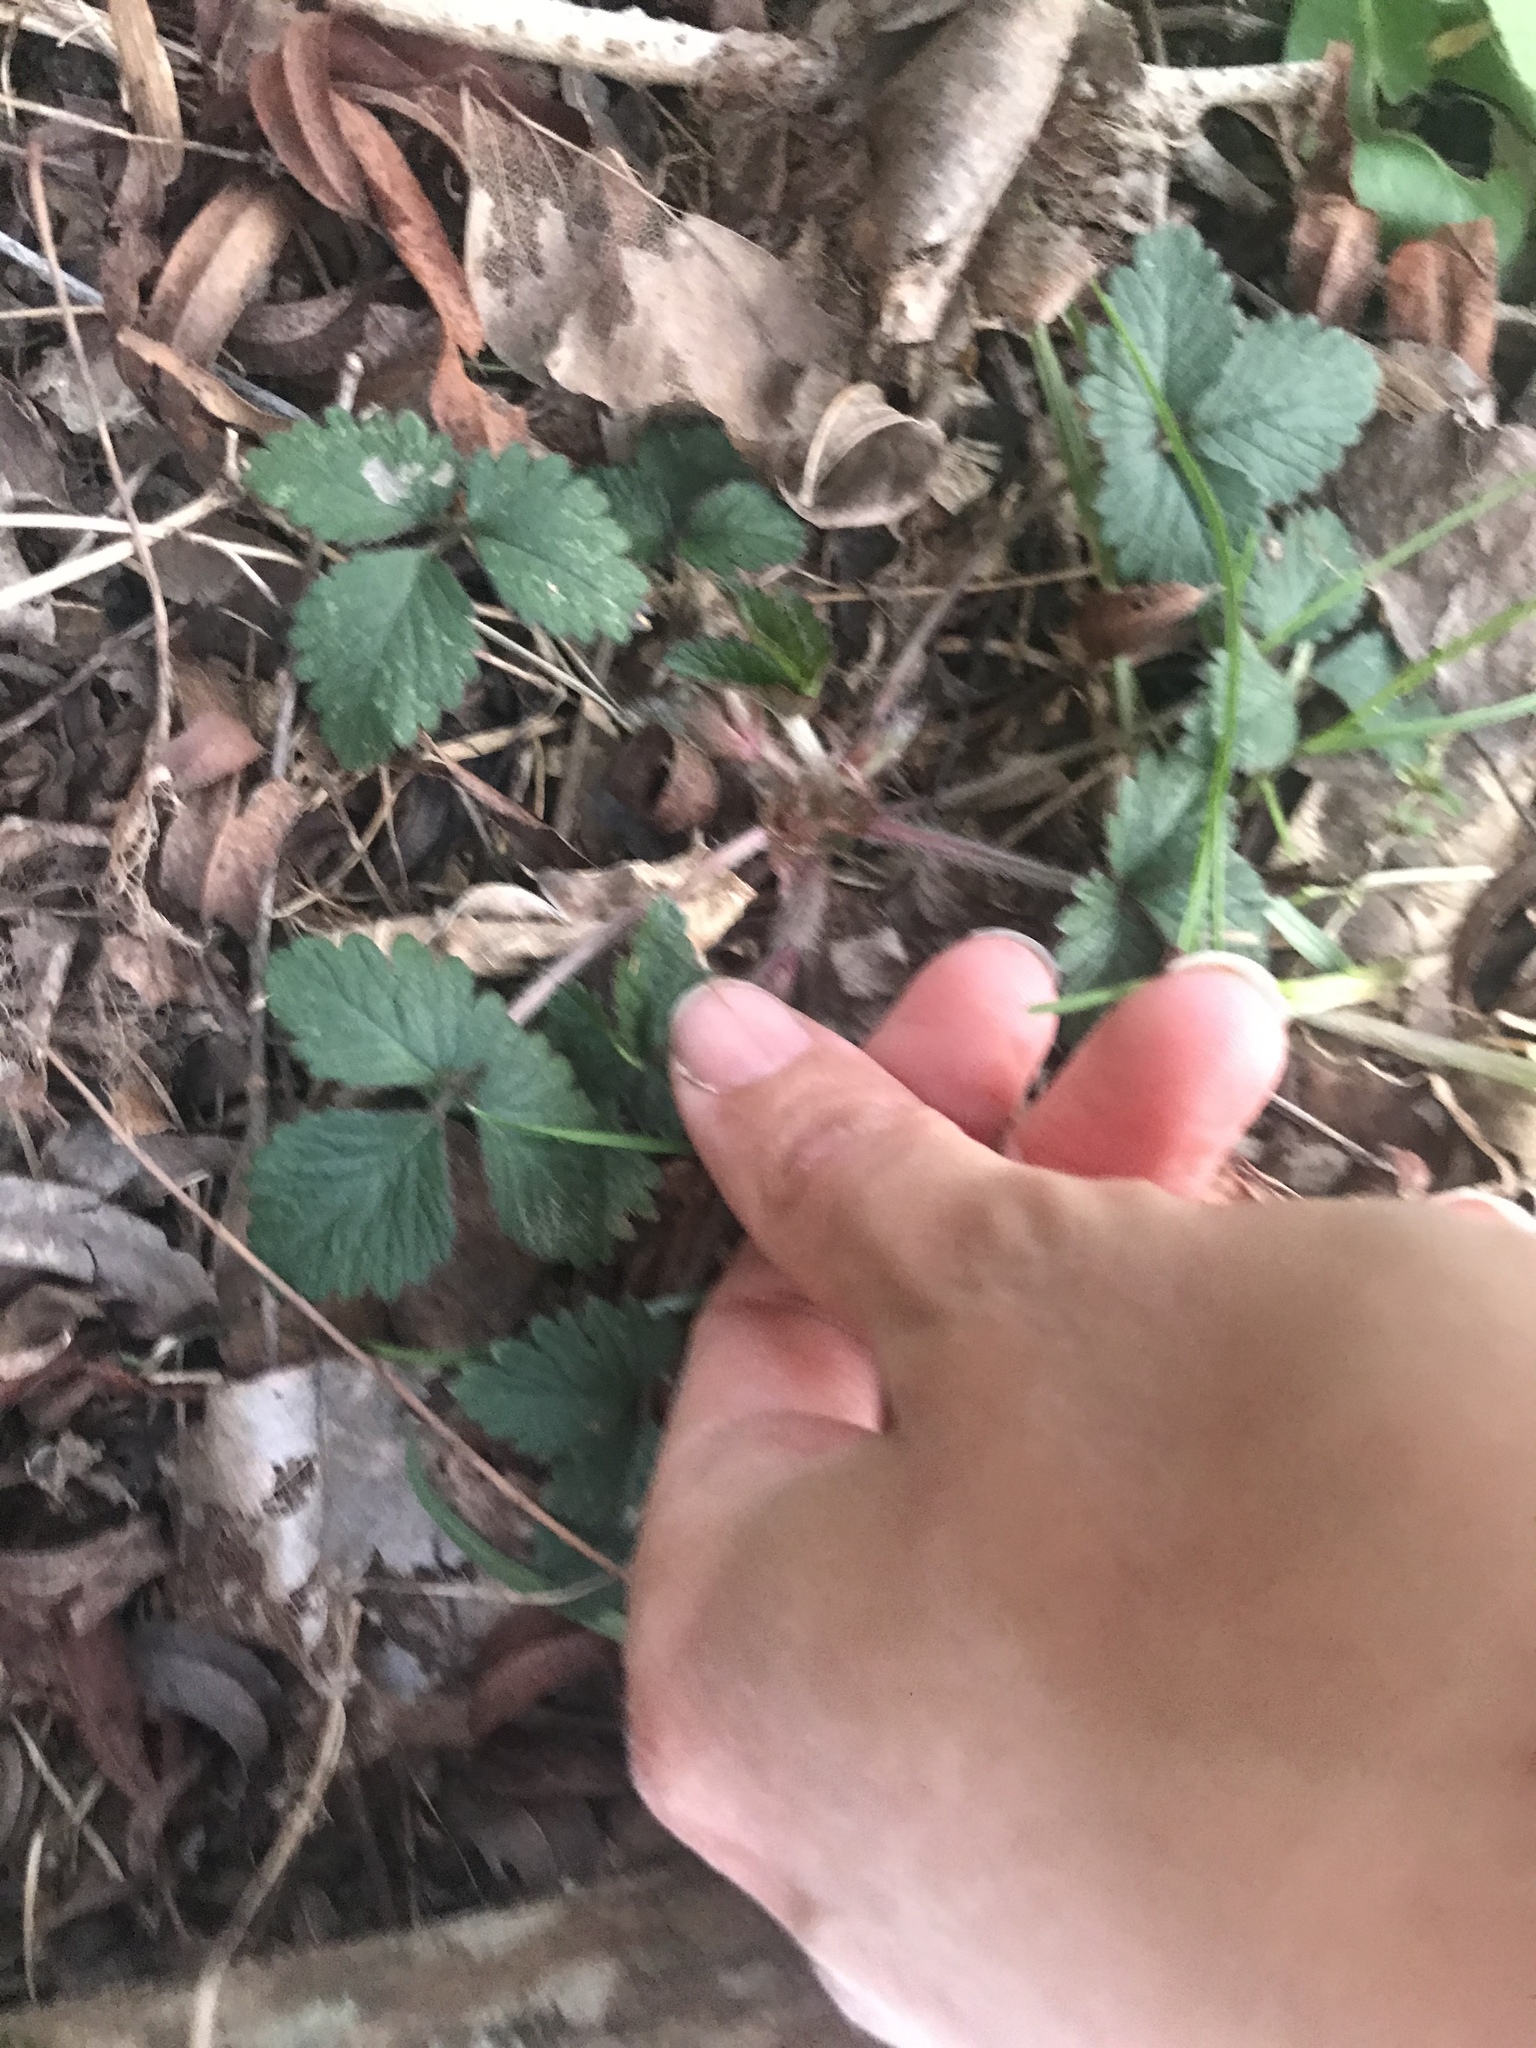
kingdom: Plantae
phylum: Tracheophyta
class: Magnoliopsida
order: Rosales
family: Rosaceae
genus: Potentilla
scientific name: Potentilla indica
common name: Yellow-flowered strawberry
